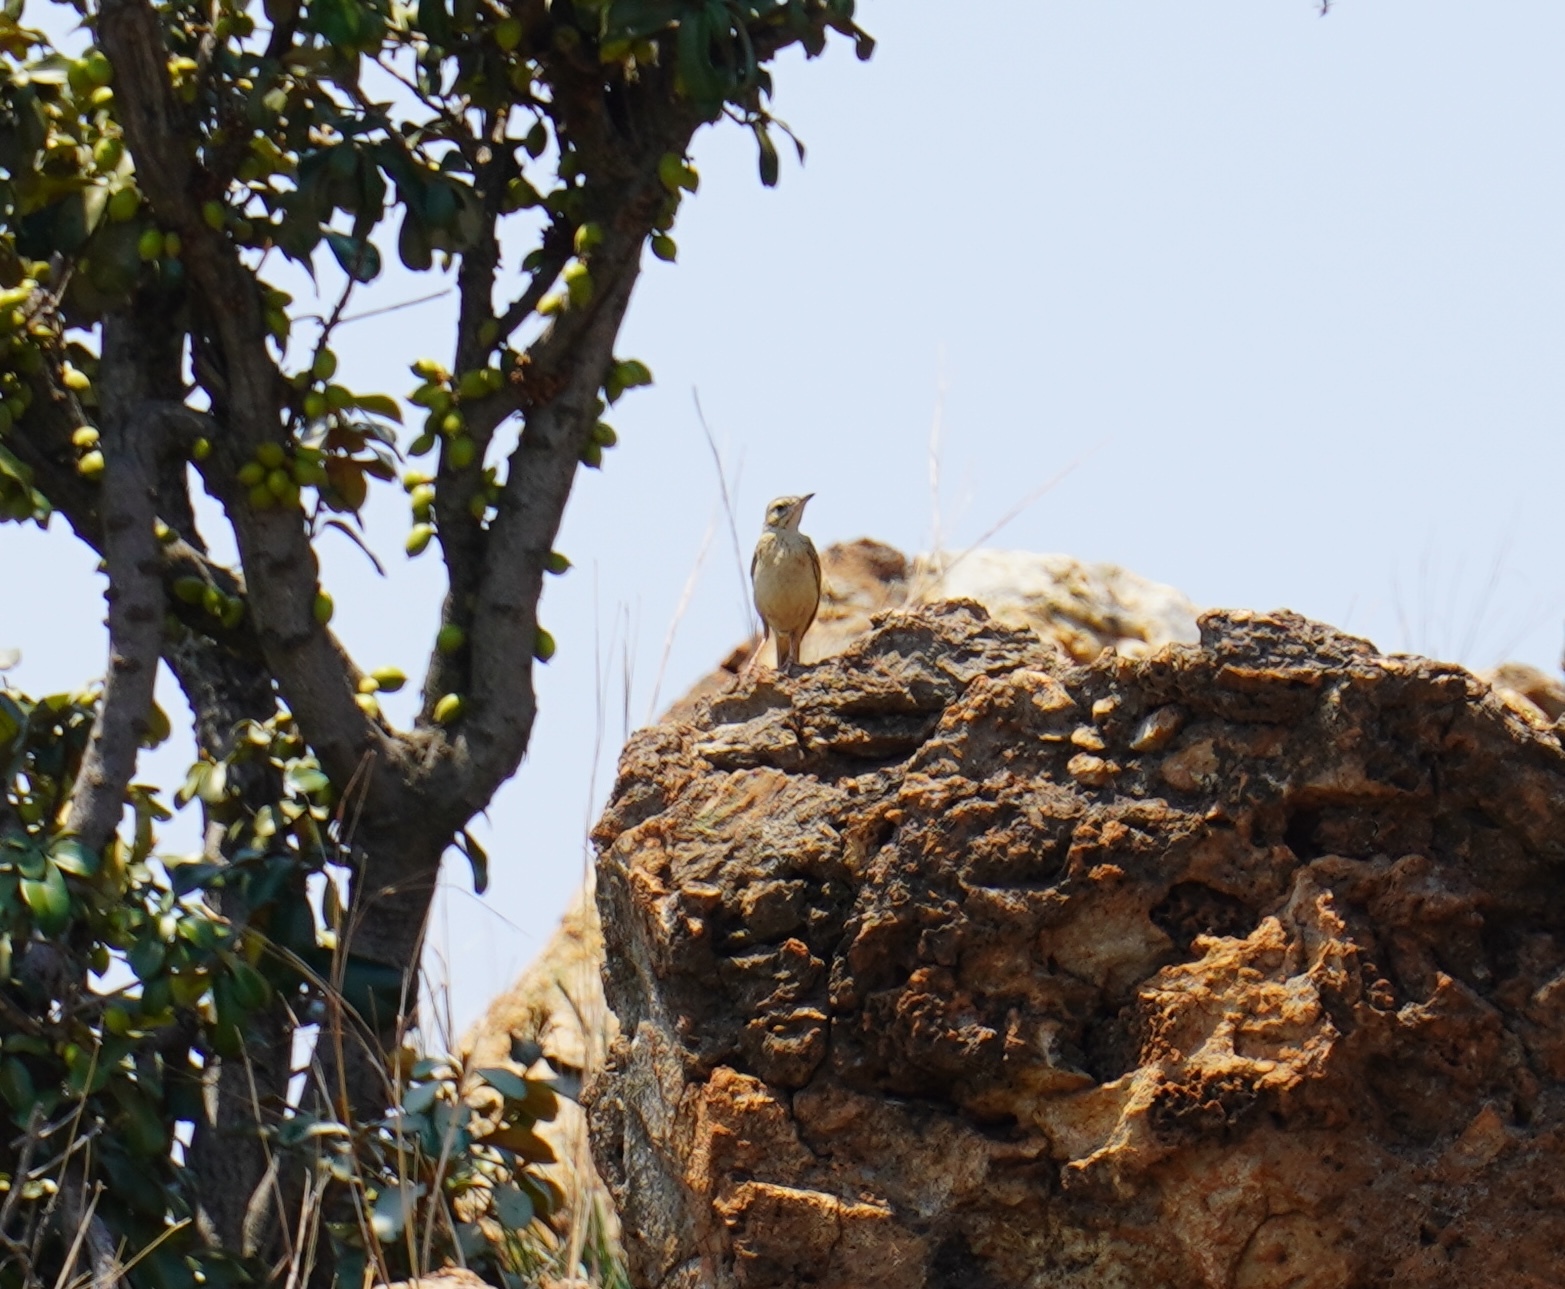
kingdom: Animalia
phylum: Chordata
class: Aves
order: Passeriformes
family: Motacillidae
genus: Anthus
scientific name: Anthus cinnamomeus
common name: African pipit
